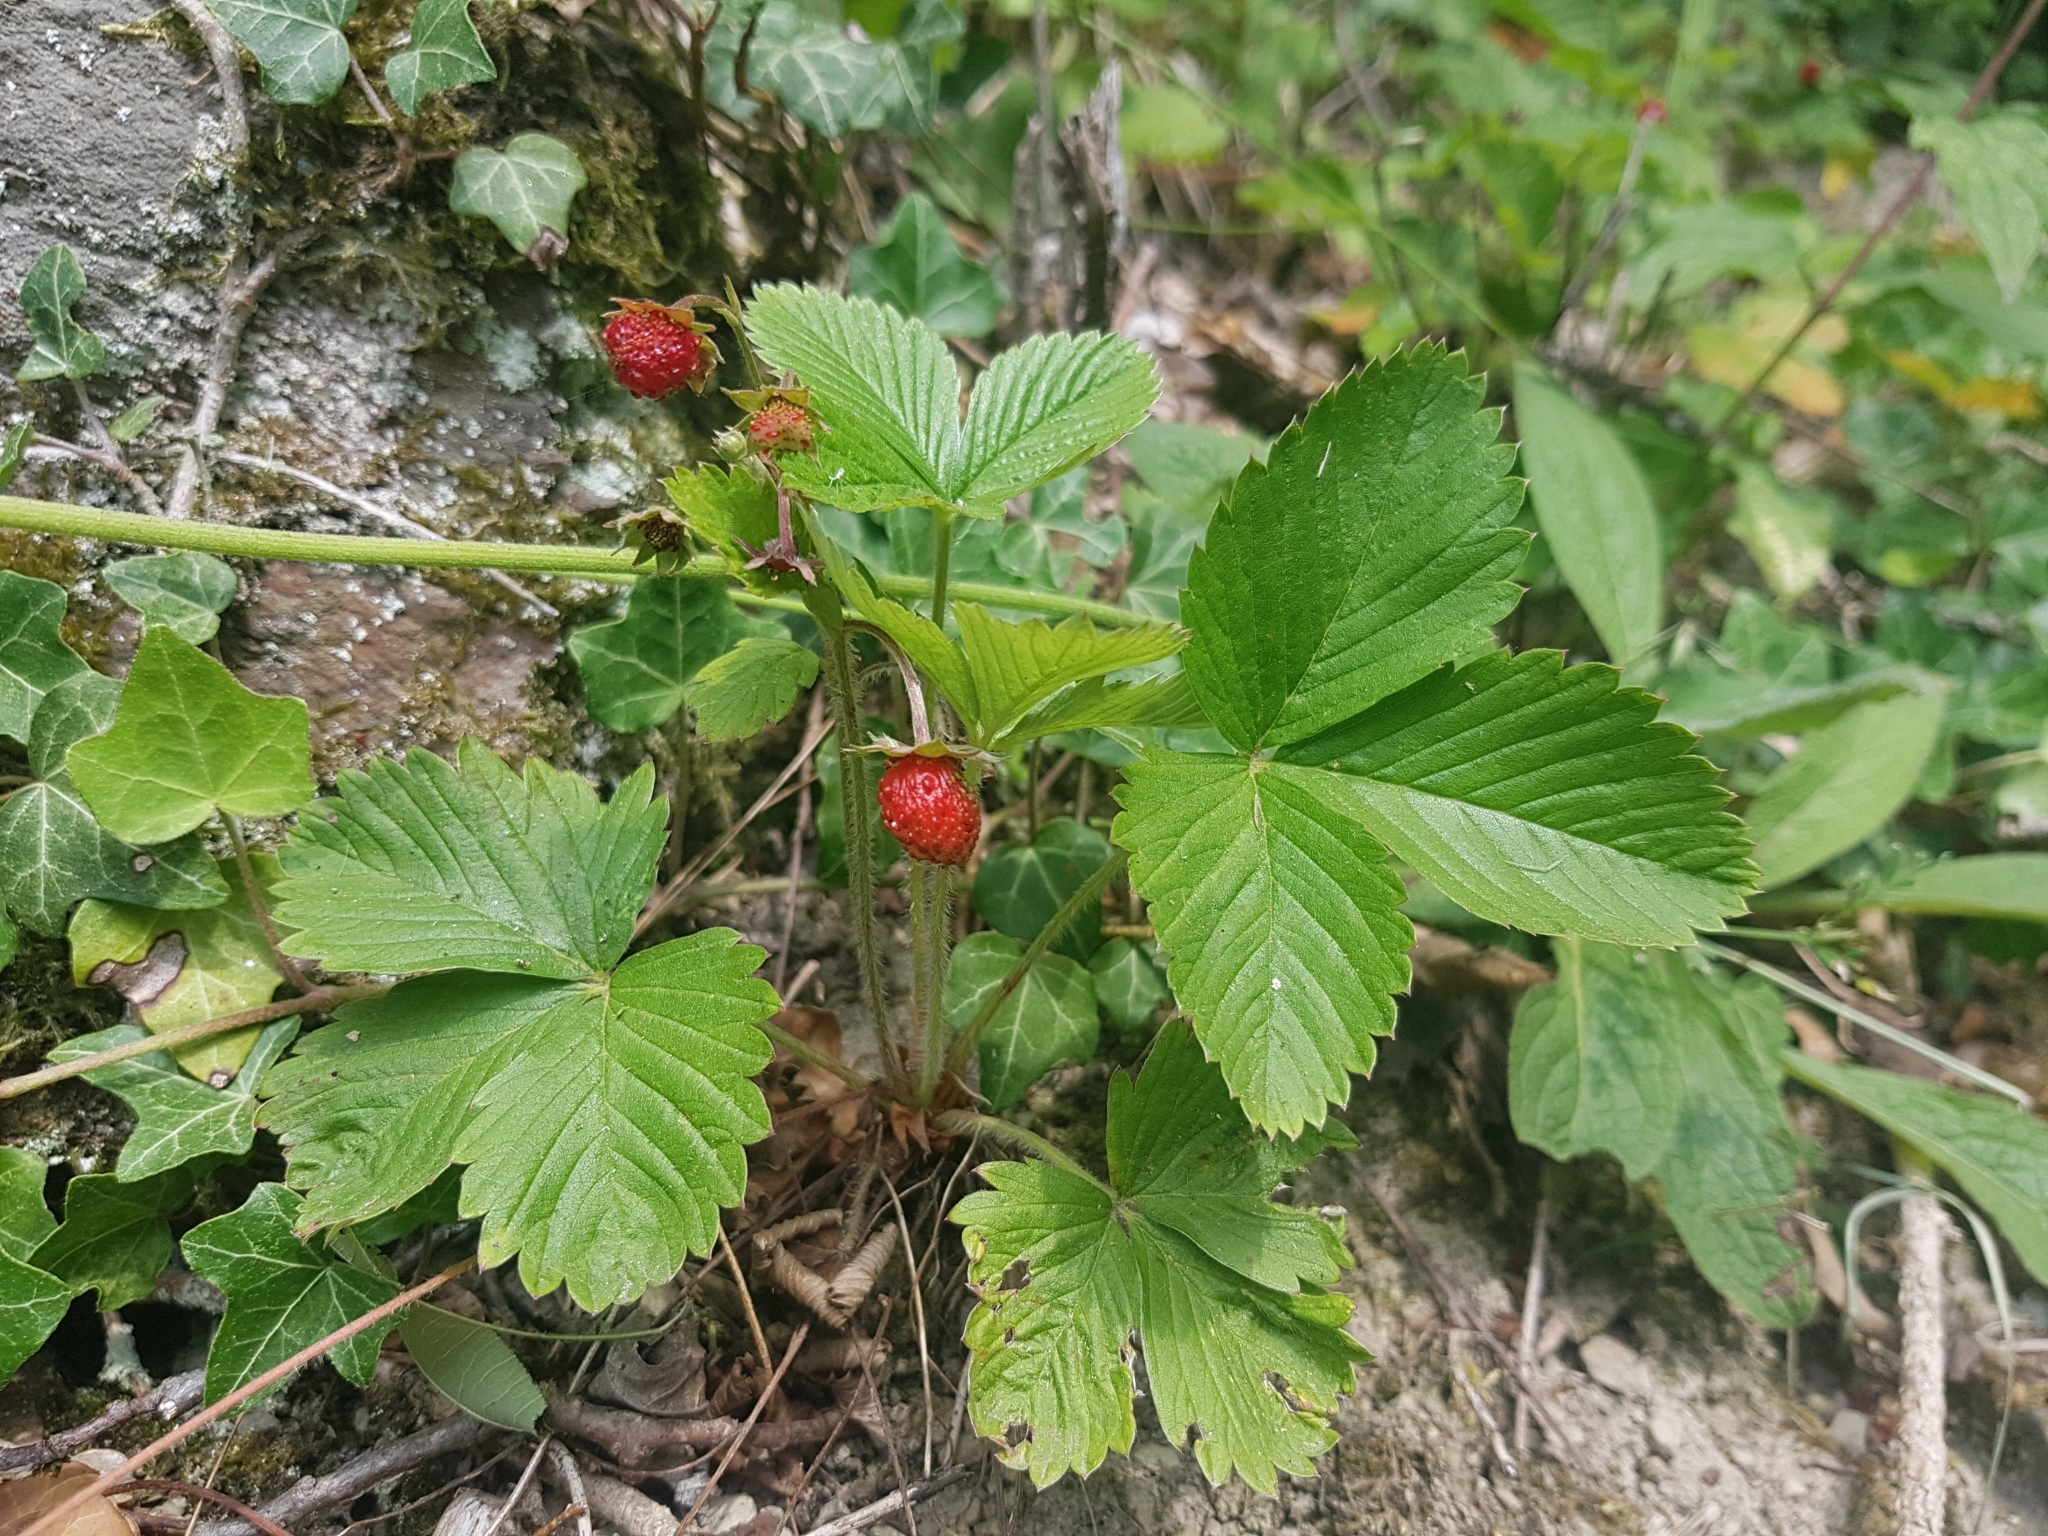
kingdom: Plantae
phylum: Tracheophyta
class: Magnoliopsida
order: Rosales
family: Rosaceae
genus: Fragaria
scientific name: Fragaria vesca
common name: Wild strawberry
